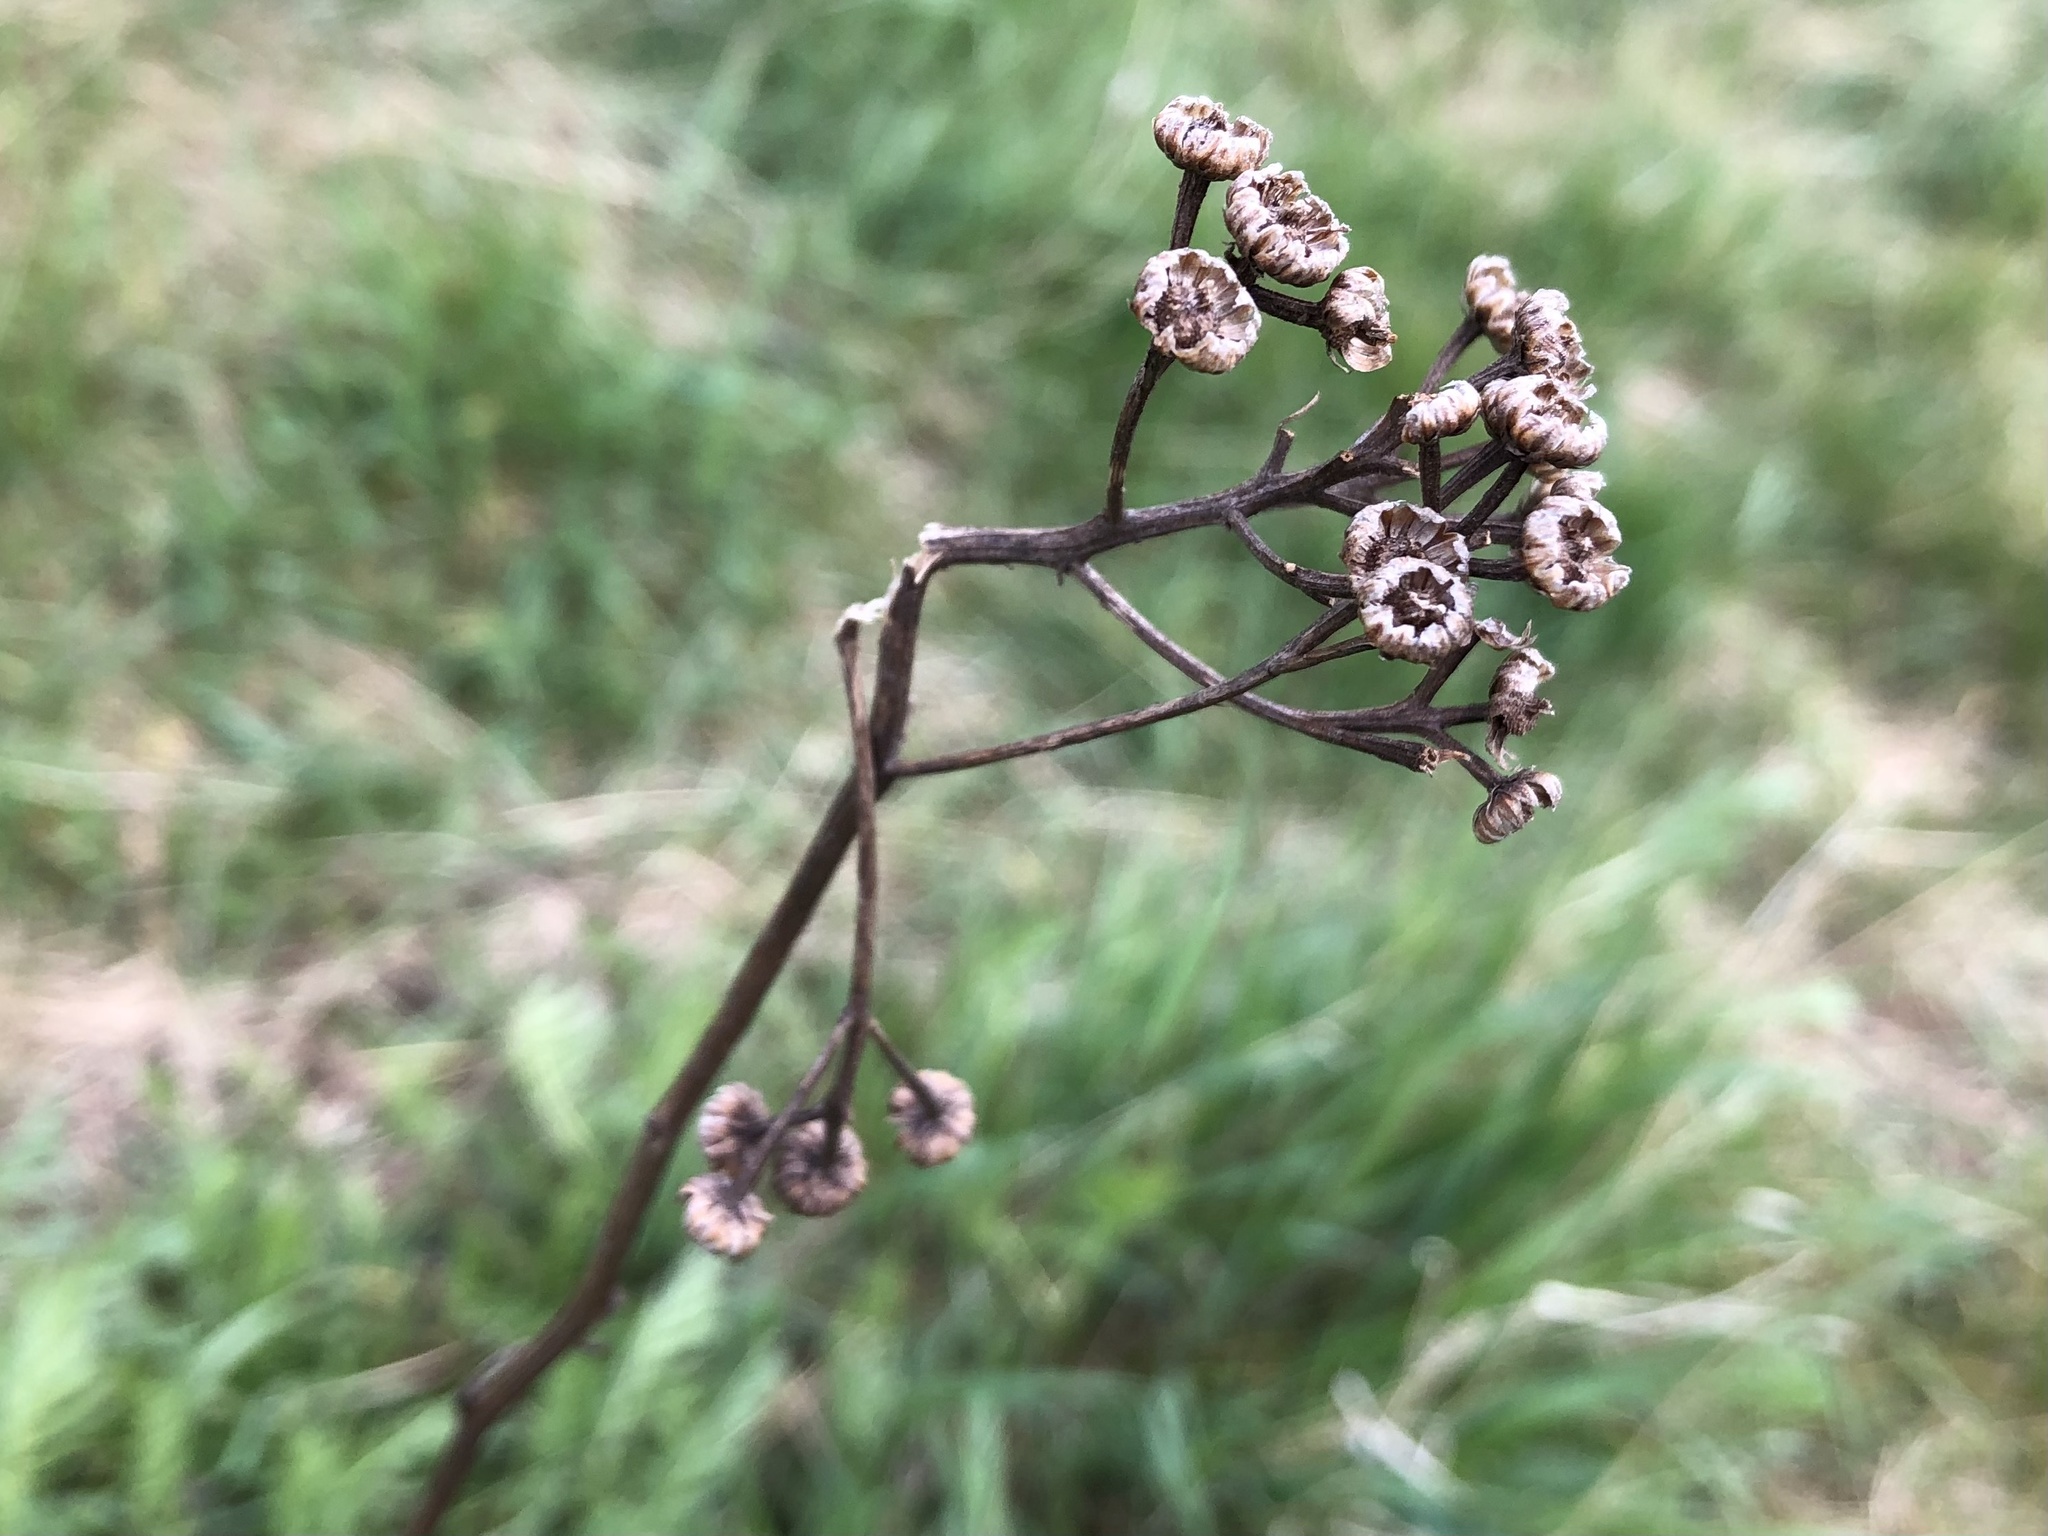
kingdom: Plantae
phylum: Tracheophyta
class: Magnoliopsida
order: Asterales
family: Asteraceae
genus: Tanacetum
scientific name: Tanacetum vulgare
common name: Common tansy
